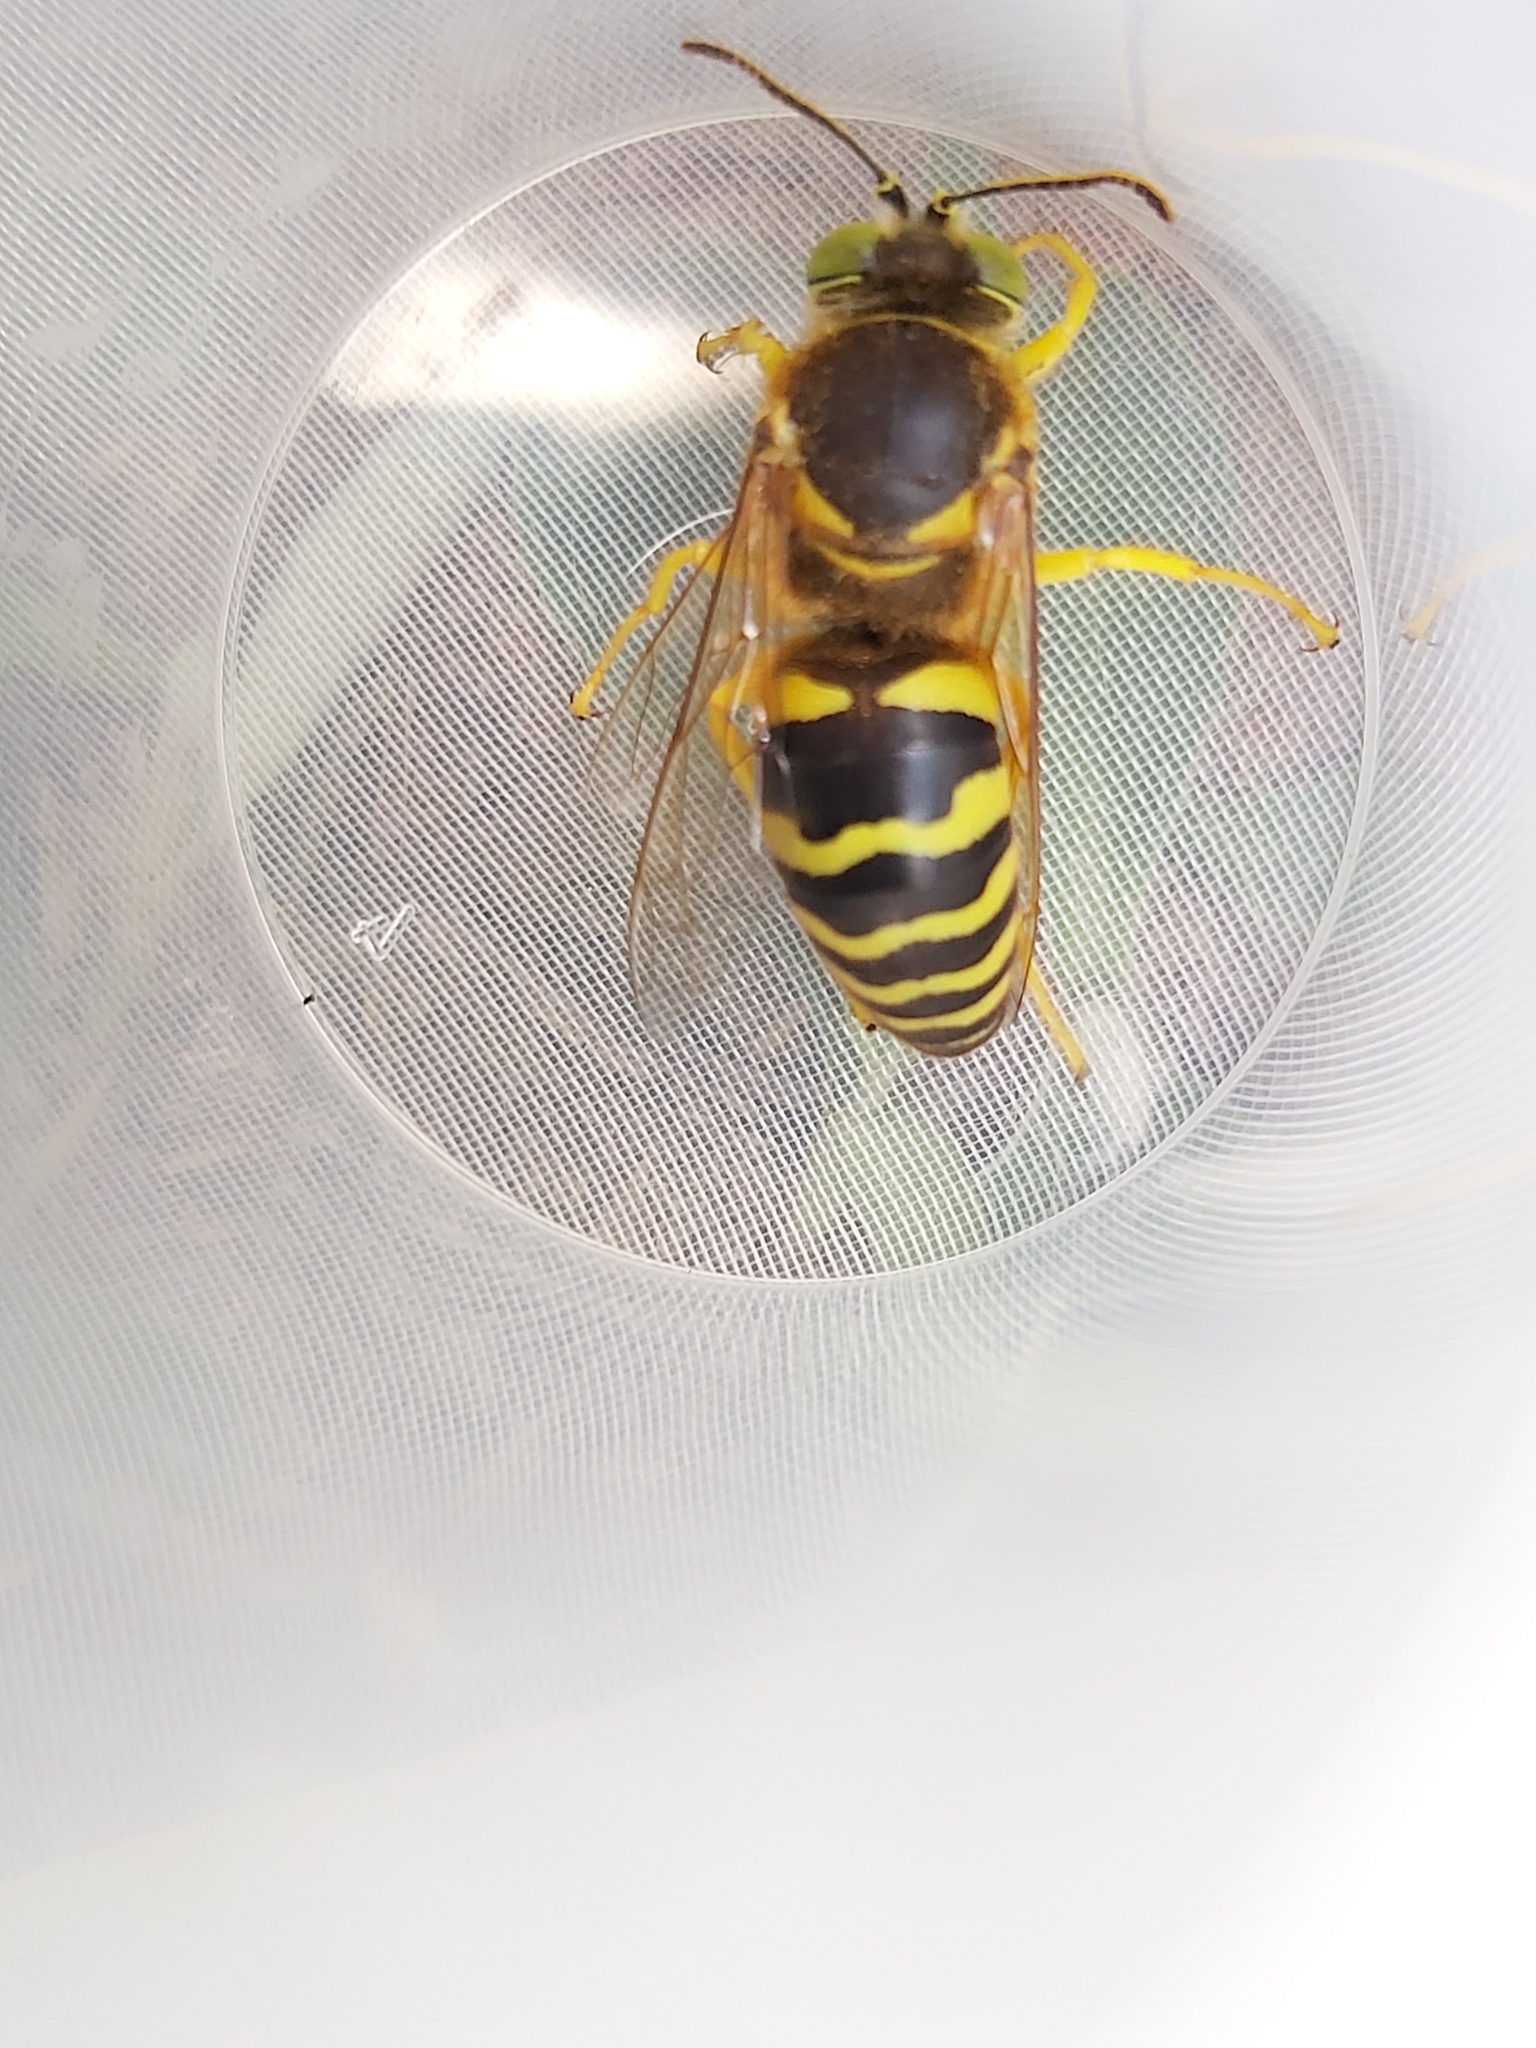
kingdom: Animalia
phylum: Arthropoda
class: Insecta
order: Hymenoptera
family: Crabronidae
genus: Bembix
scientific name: Bembix rostrata
